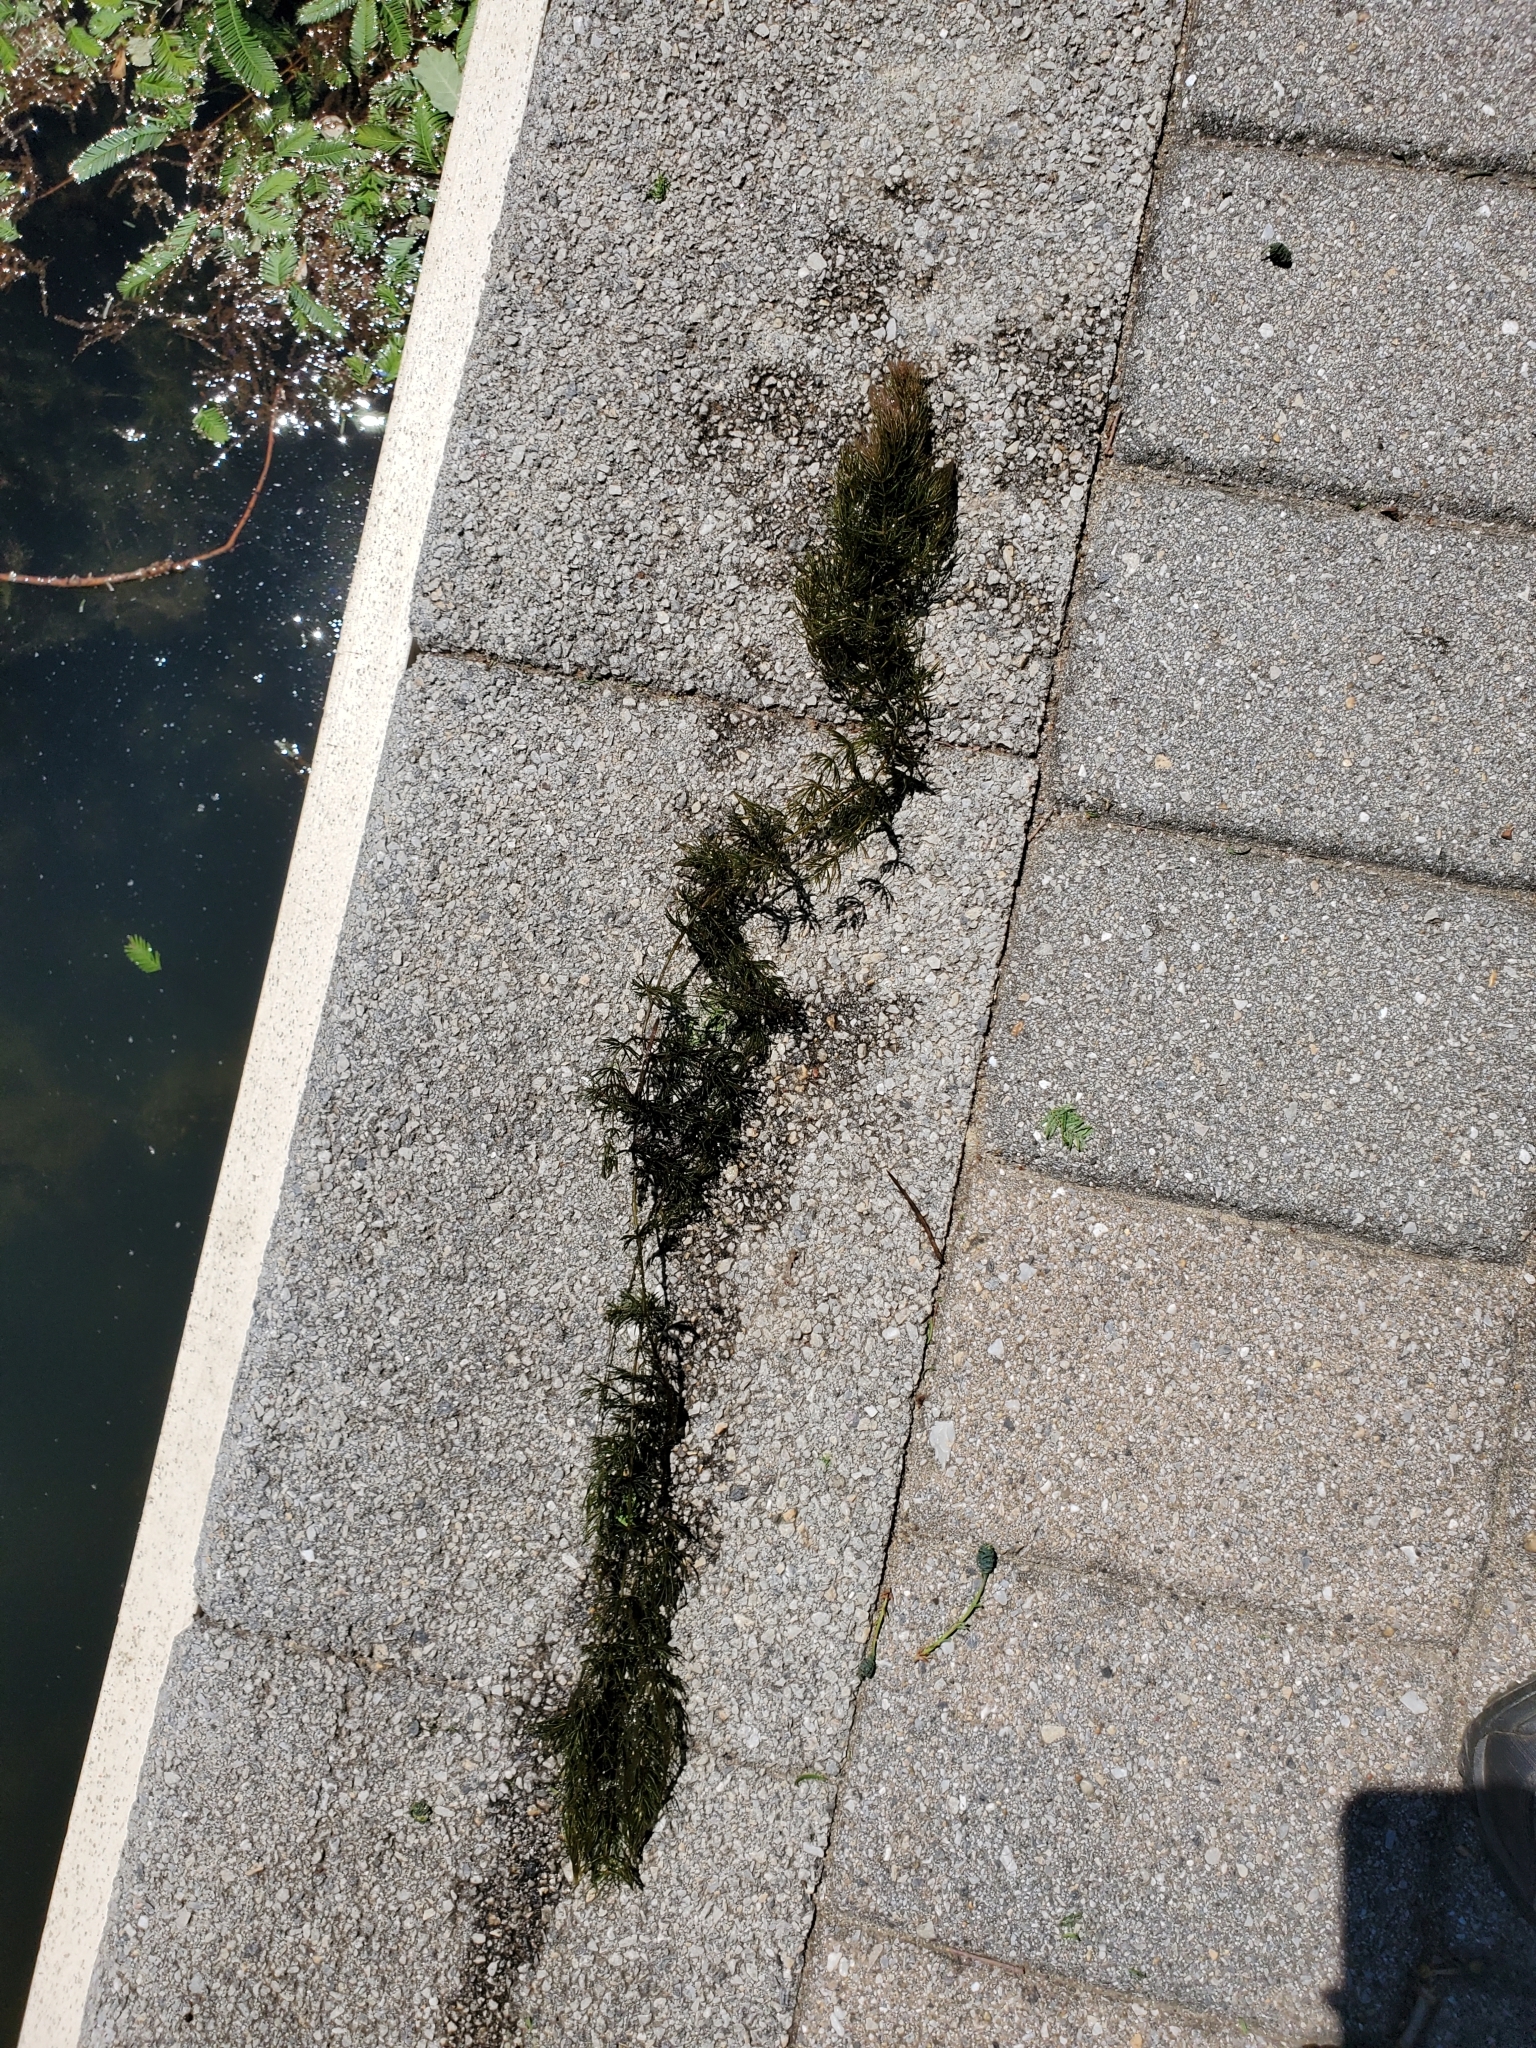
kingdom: Plantae
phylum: Tracheophyta
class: Magnoliopsida
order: Ceratophyllales
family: Ceratophyllaceae
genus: Ceratophyllum
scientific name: Ceratophyllum demersum
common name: Rigid hornwort
